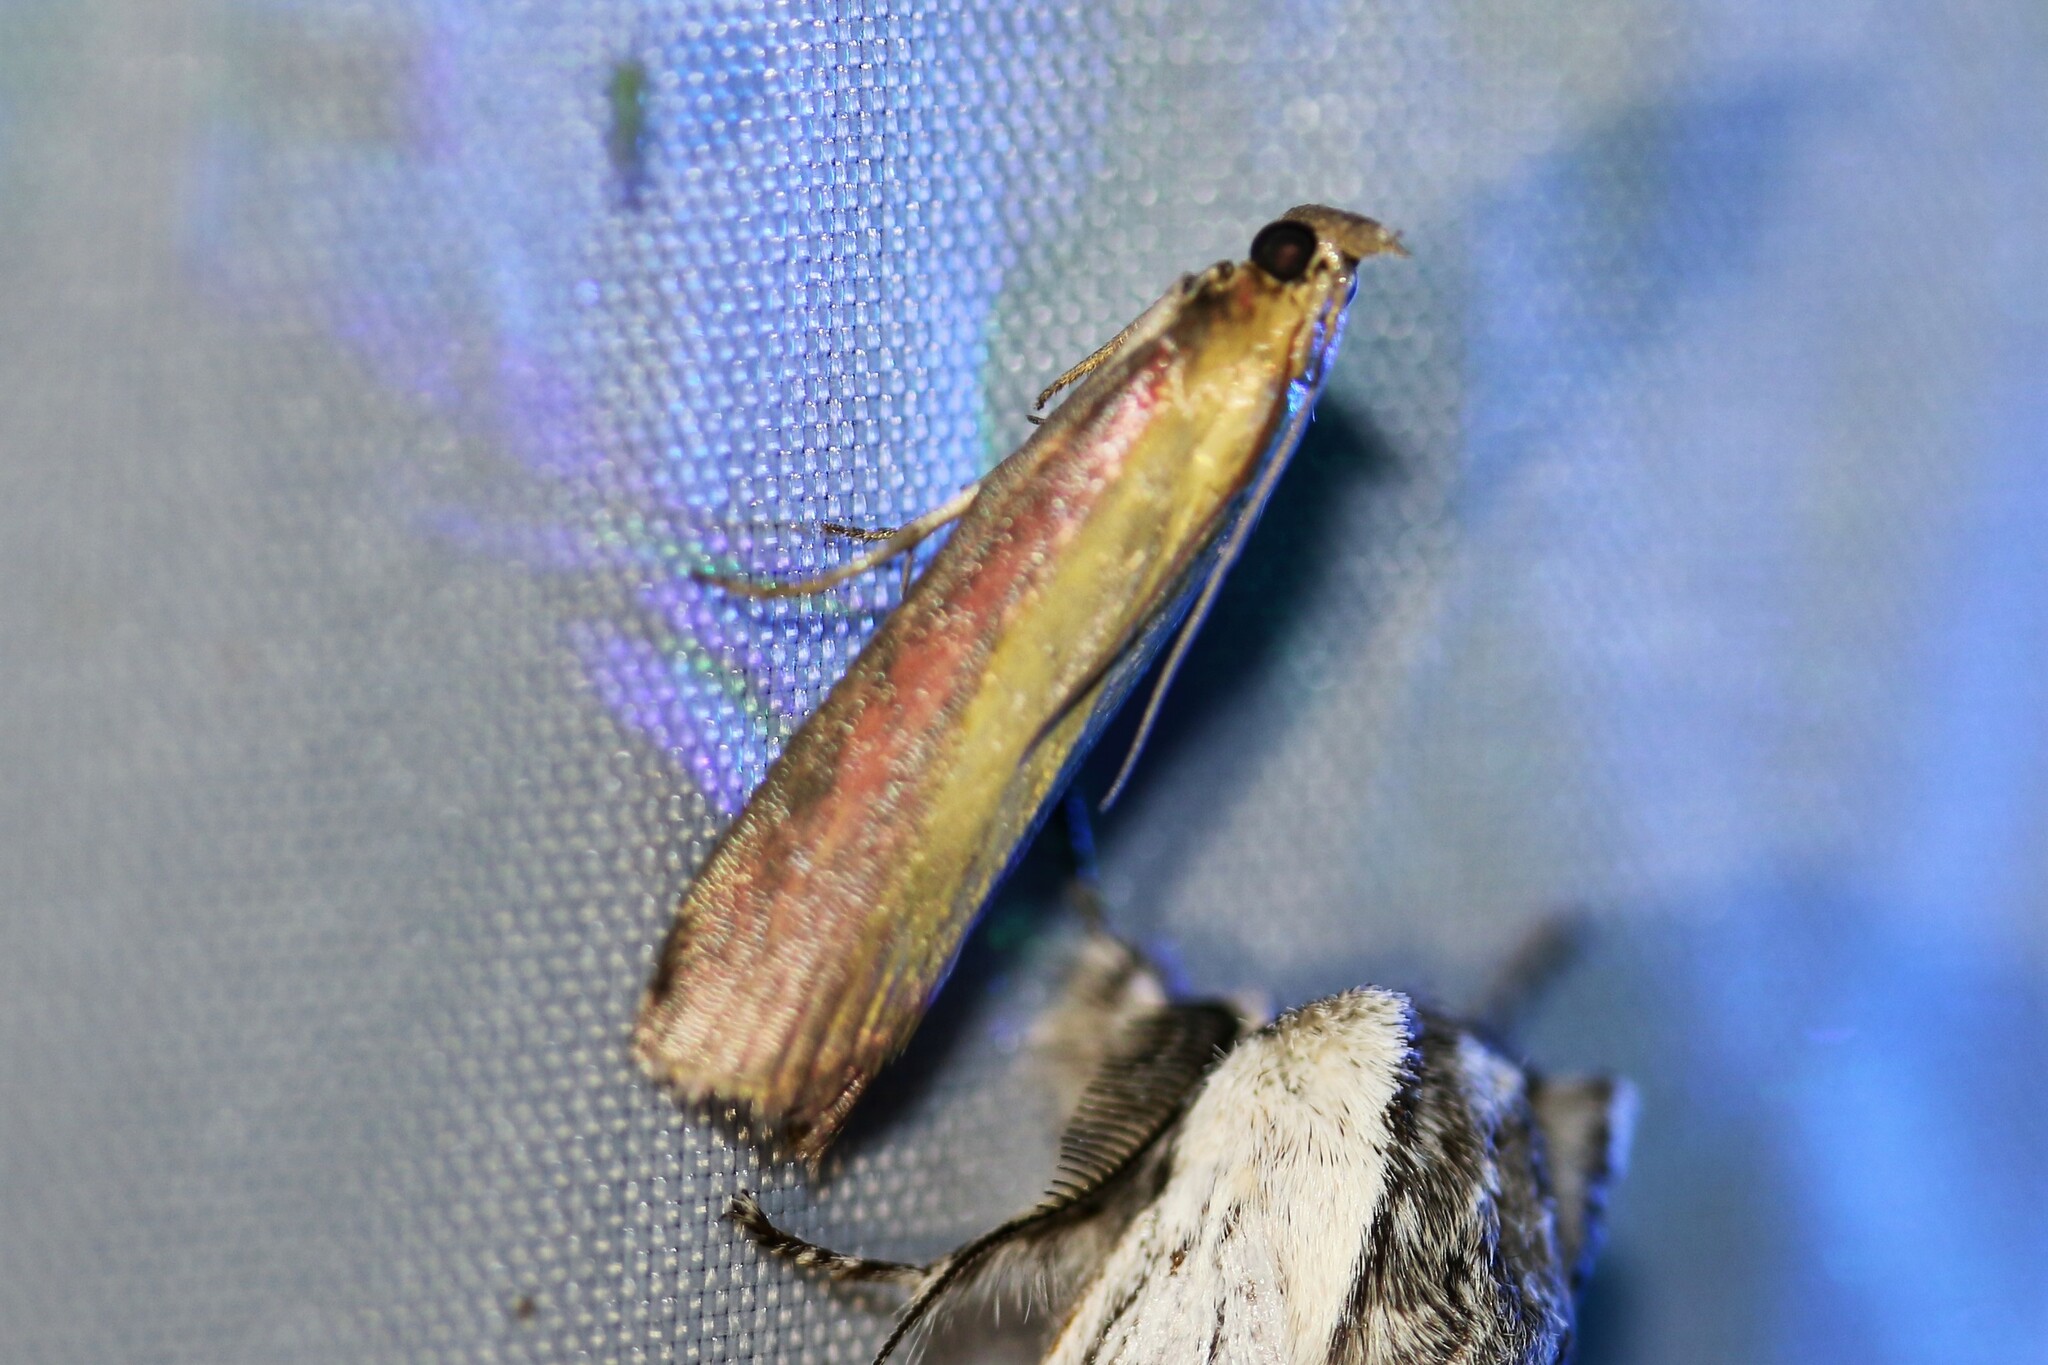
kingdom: Animalia
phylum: Arthropoda
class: Insecta
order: Lepidoptera
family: Pyralidae
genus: Oncocera
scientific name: Oncocera semirubella
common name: Rosy-striped knot-horn
